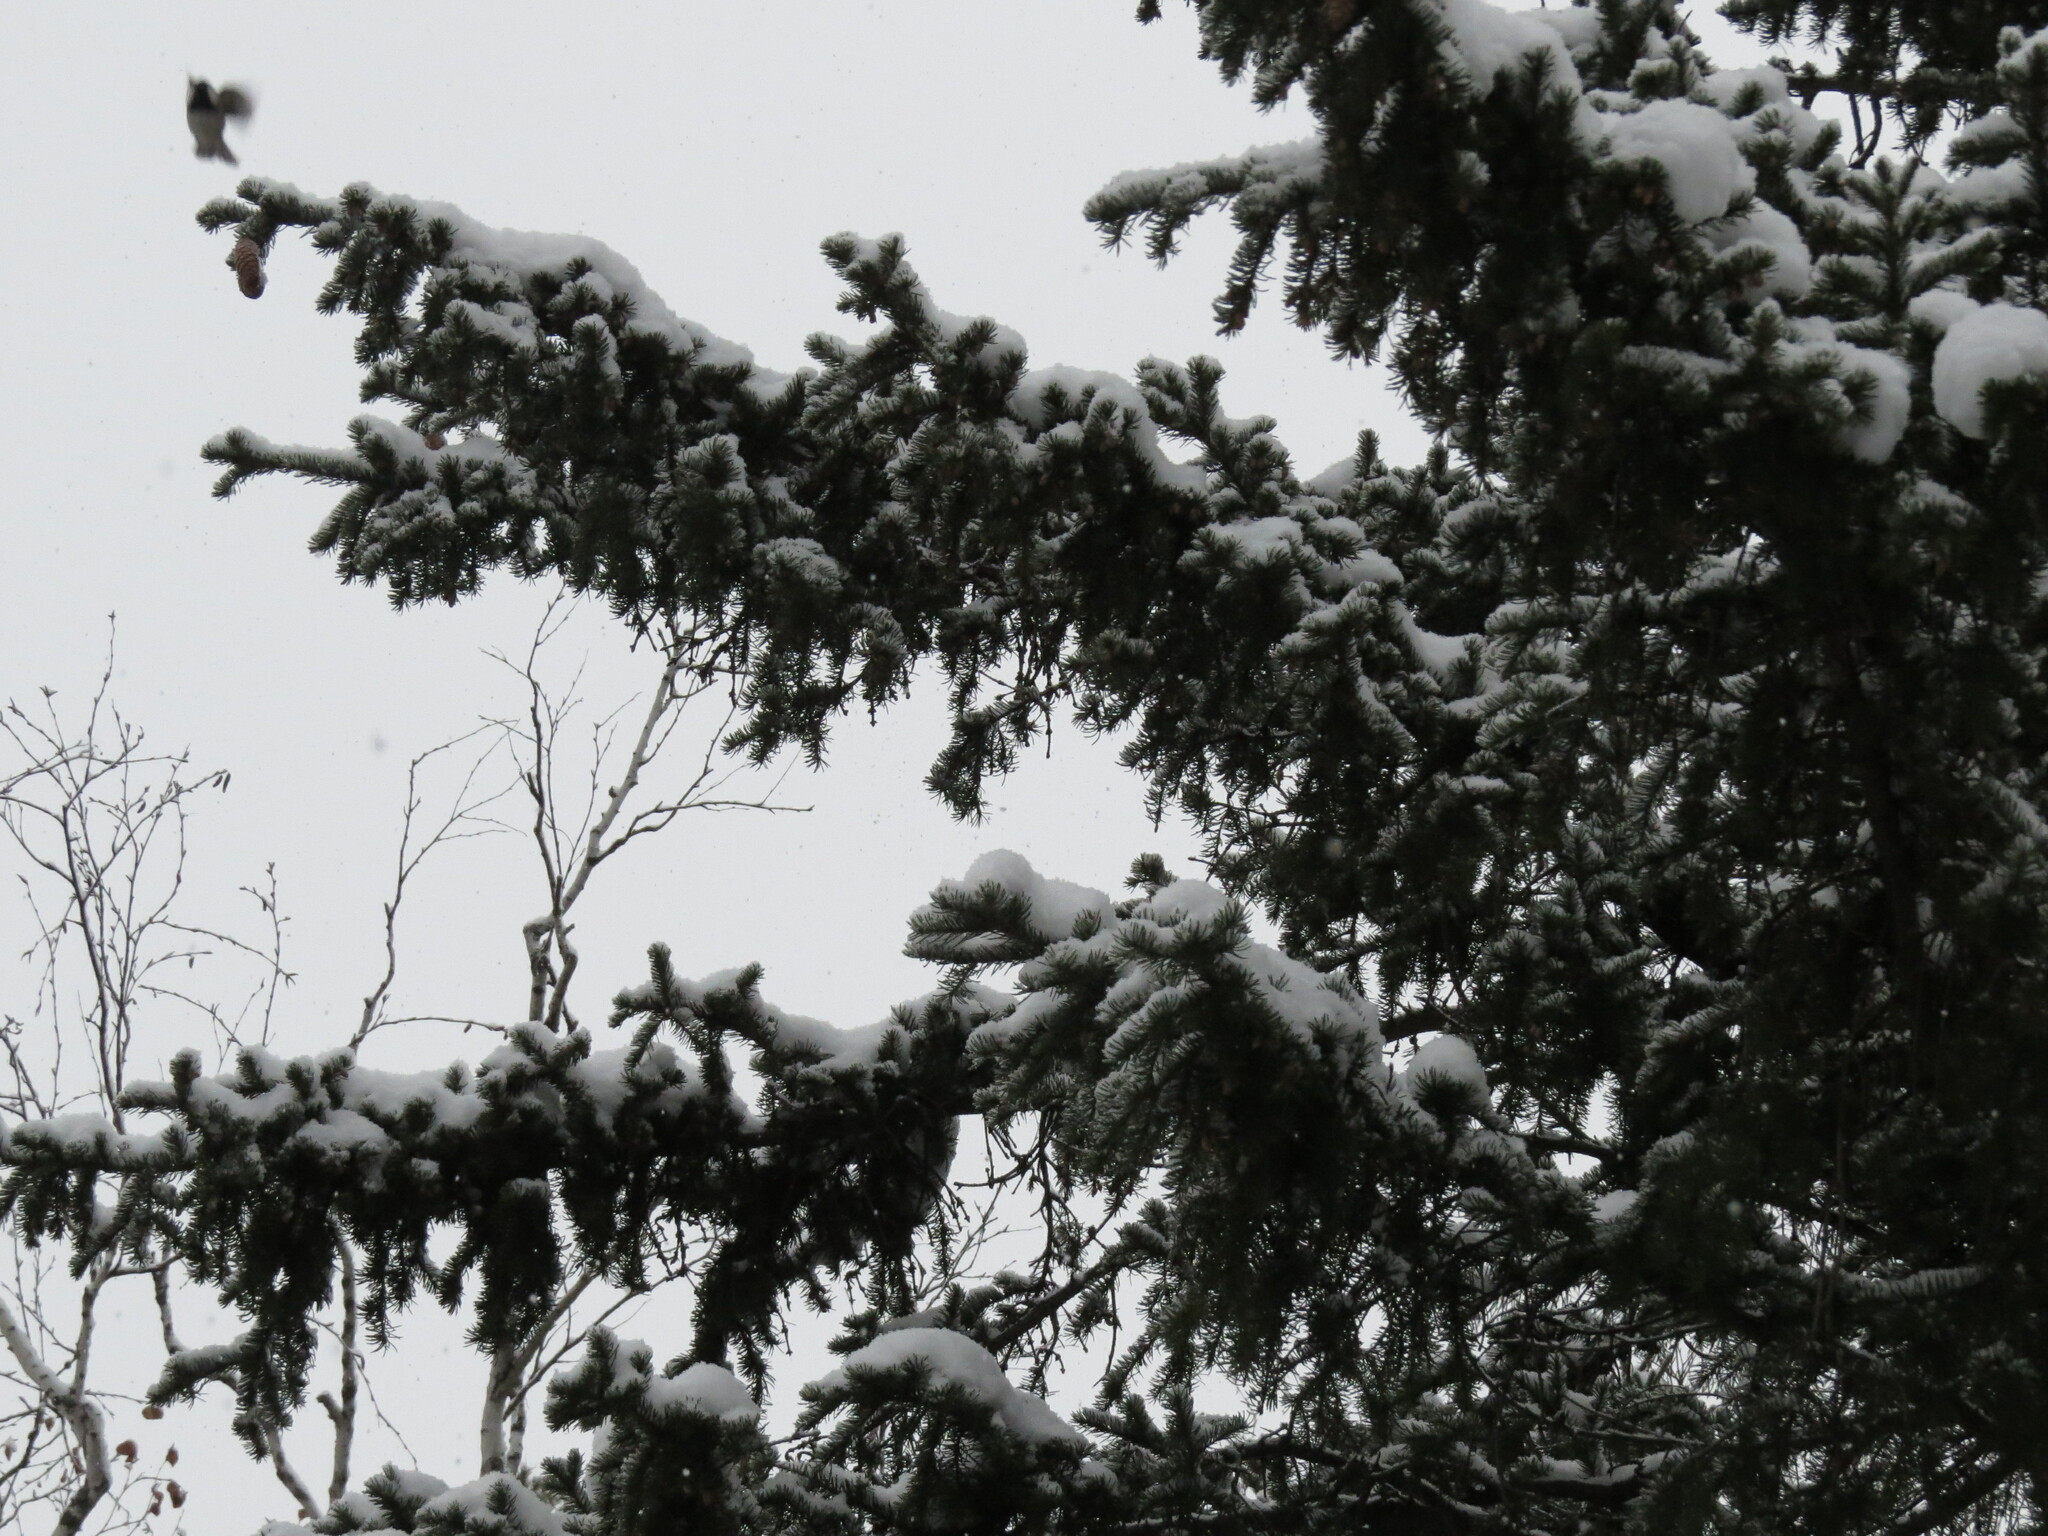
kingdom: Animalia
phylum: Chordata
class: Aves
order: Passeriformes
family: Paridae
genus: Periparus
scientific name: Periparus ater
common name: Coal tit
